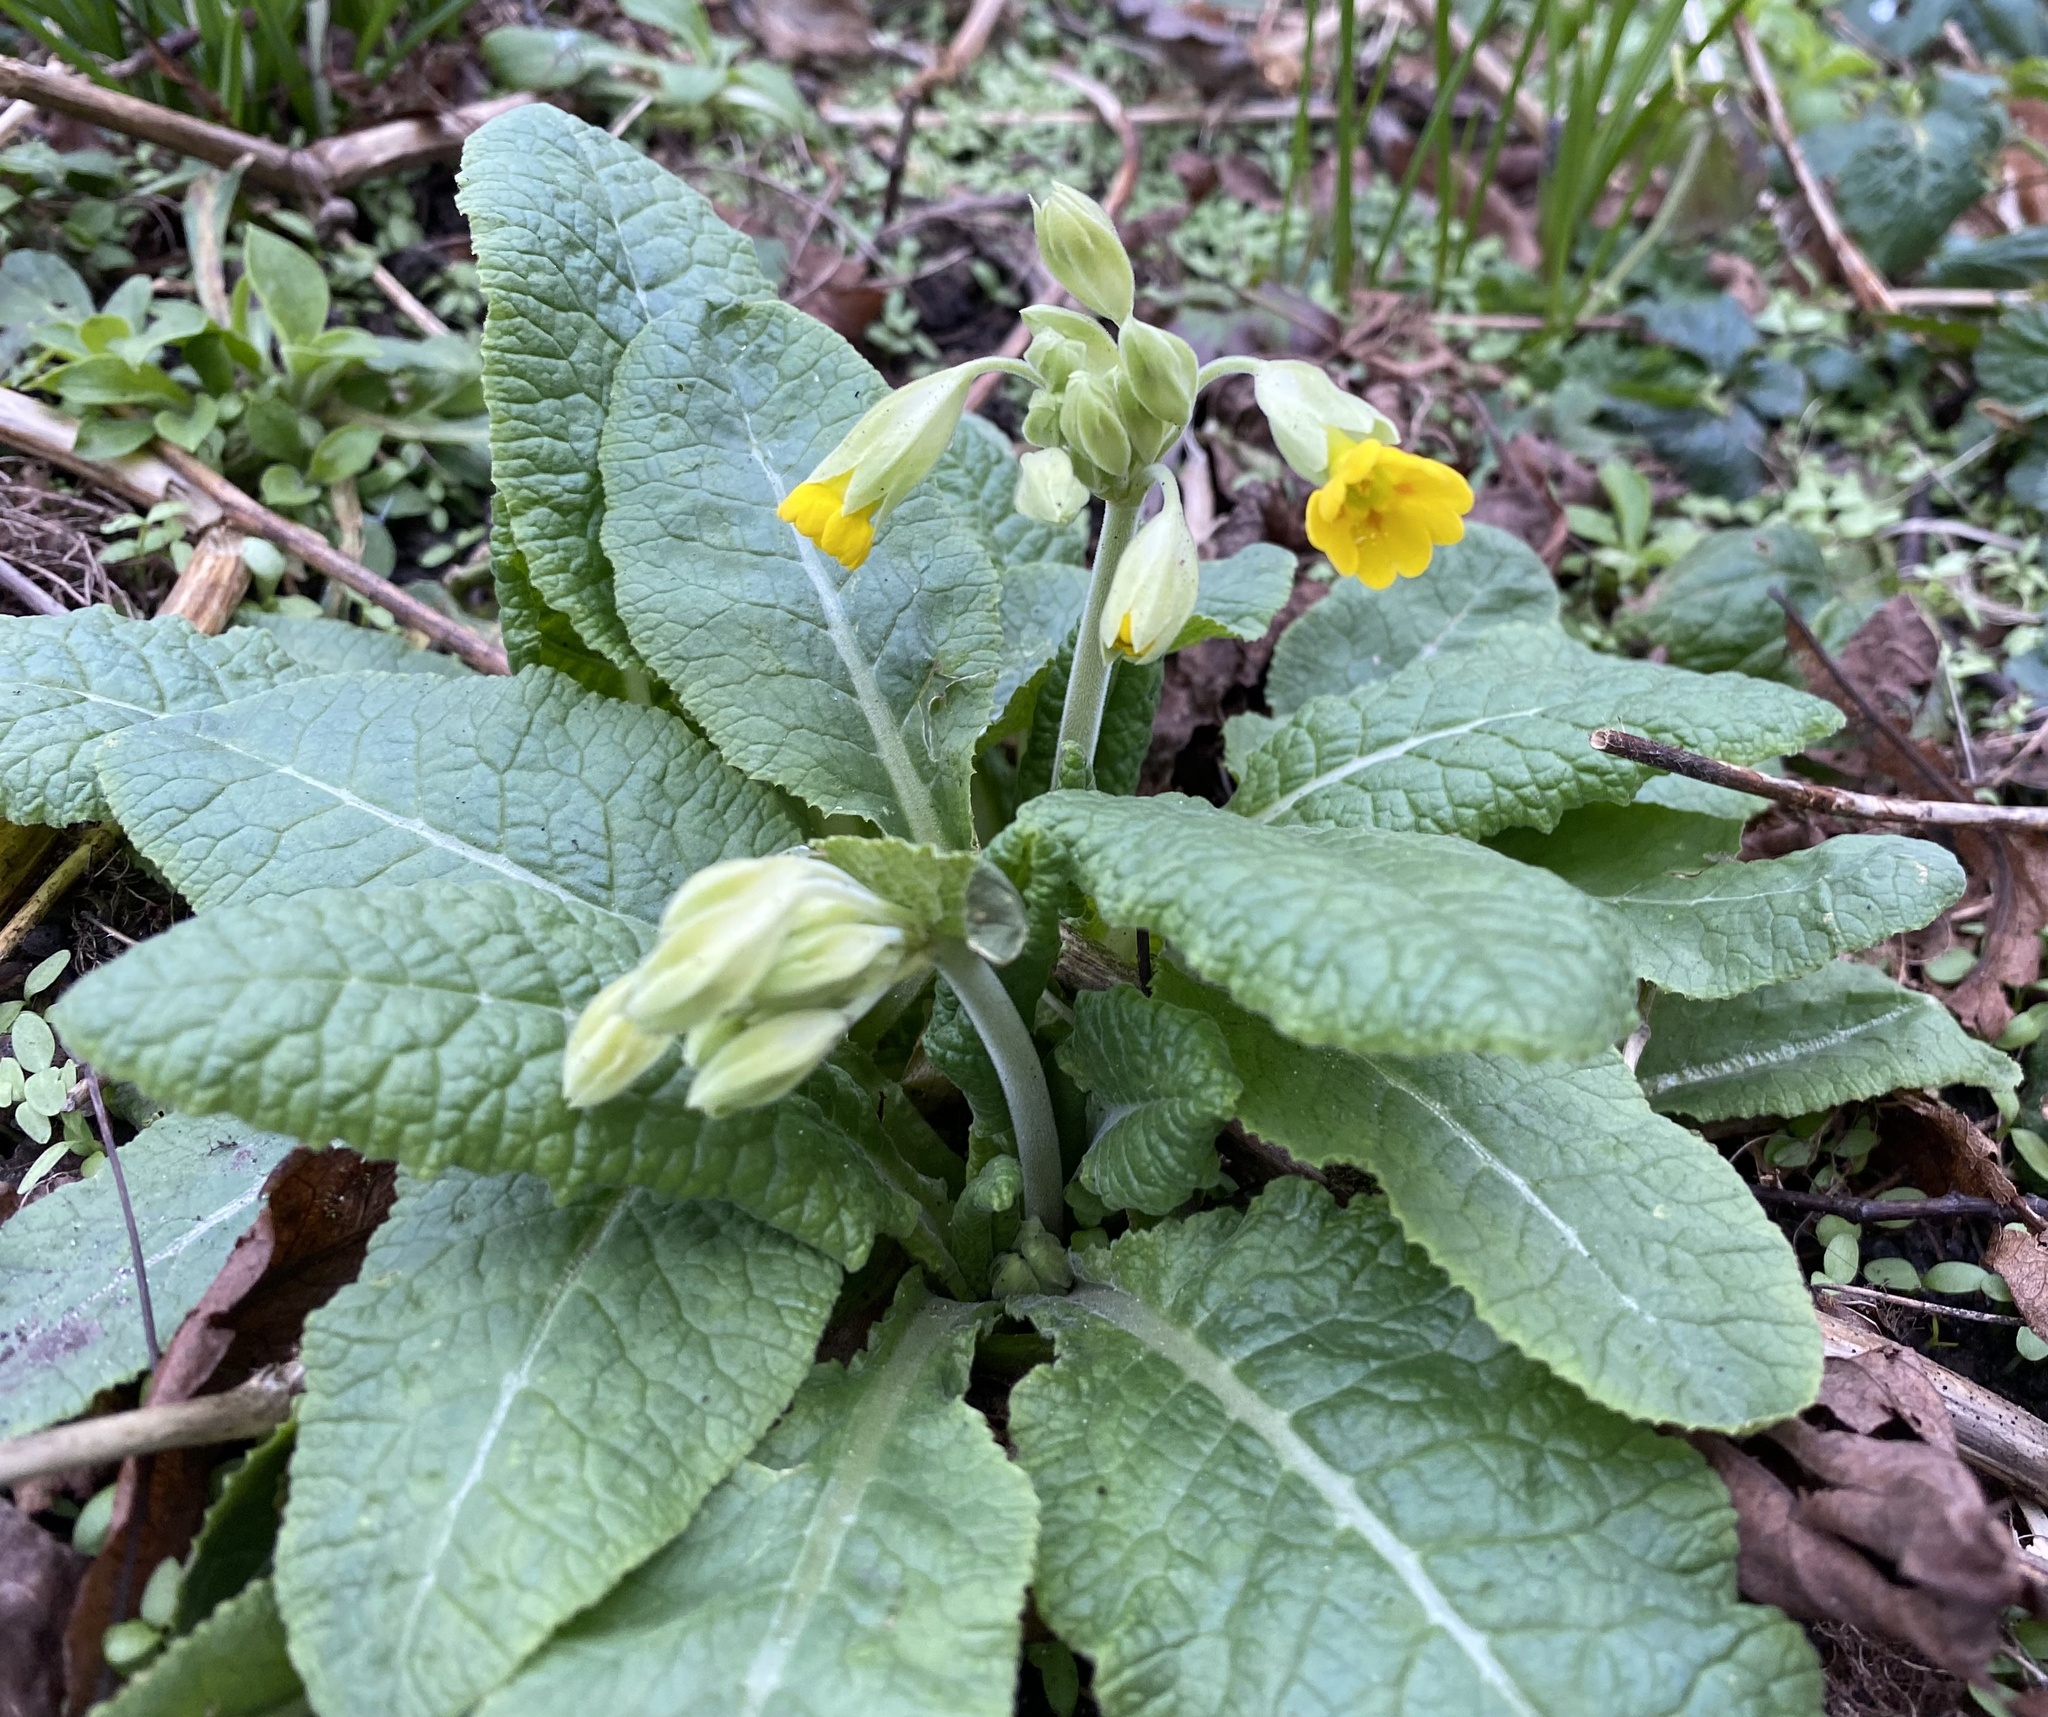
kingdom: Plantae
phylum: Tracheophyta
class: Magnoliopsida
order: Ericales
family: Primulaceae
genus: Primula
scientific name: Primula veris
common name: Cowslip
